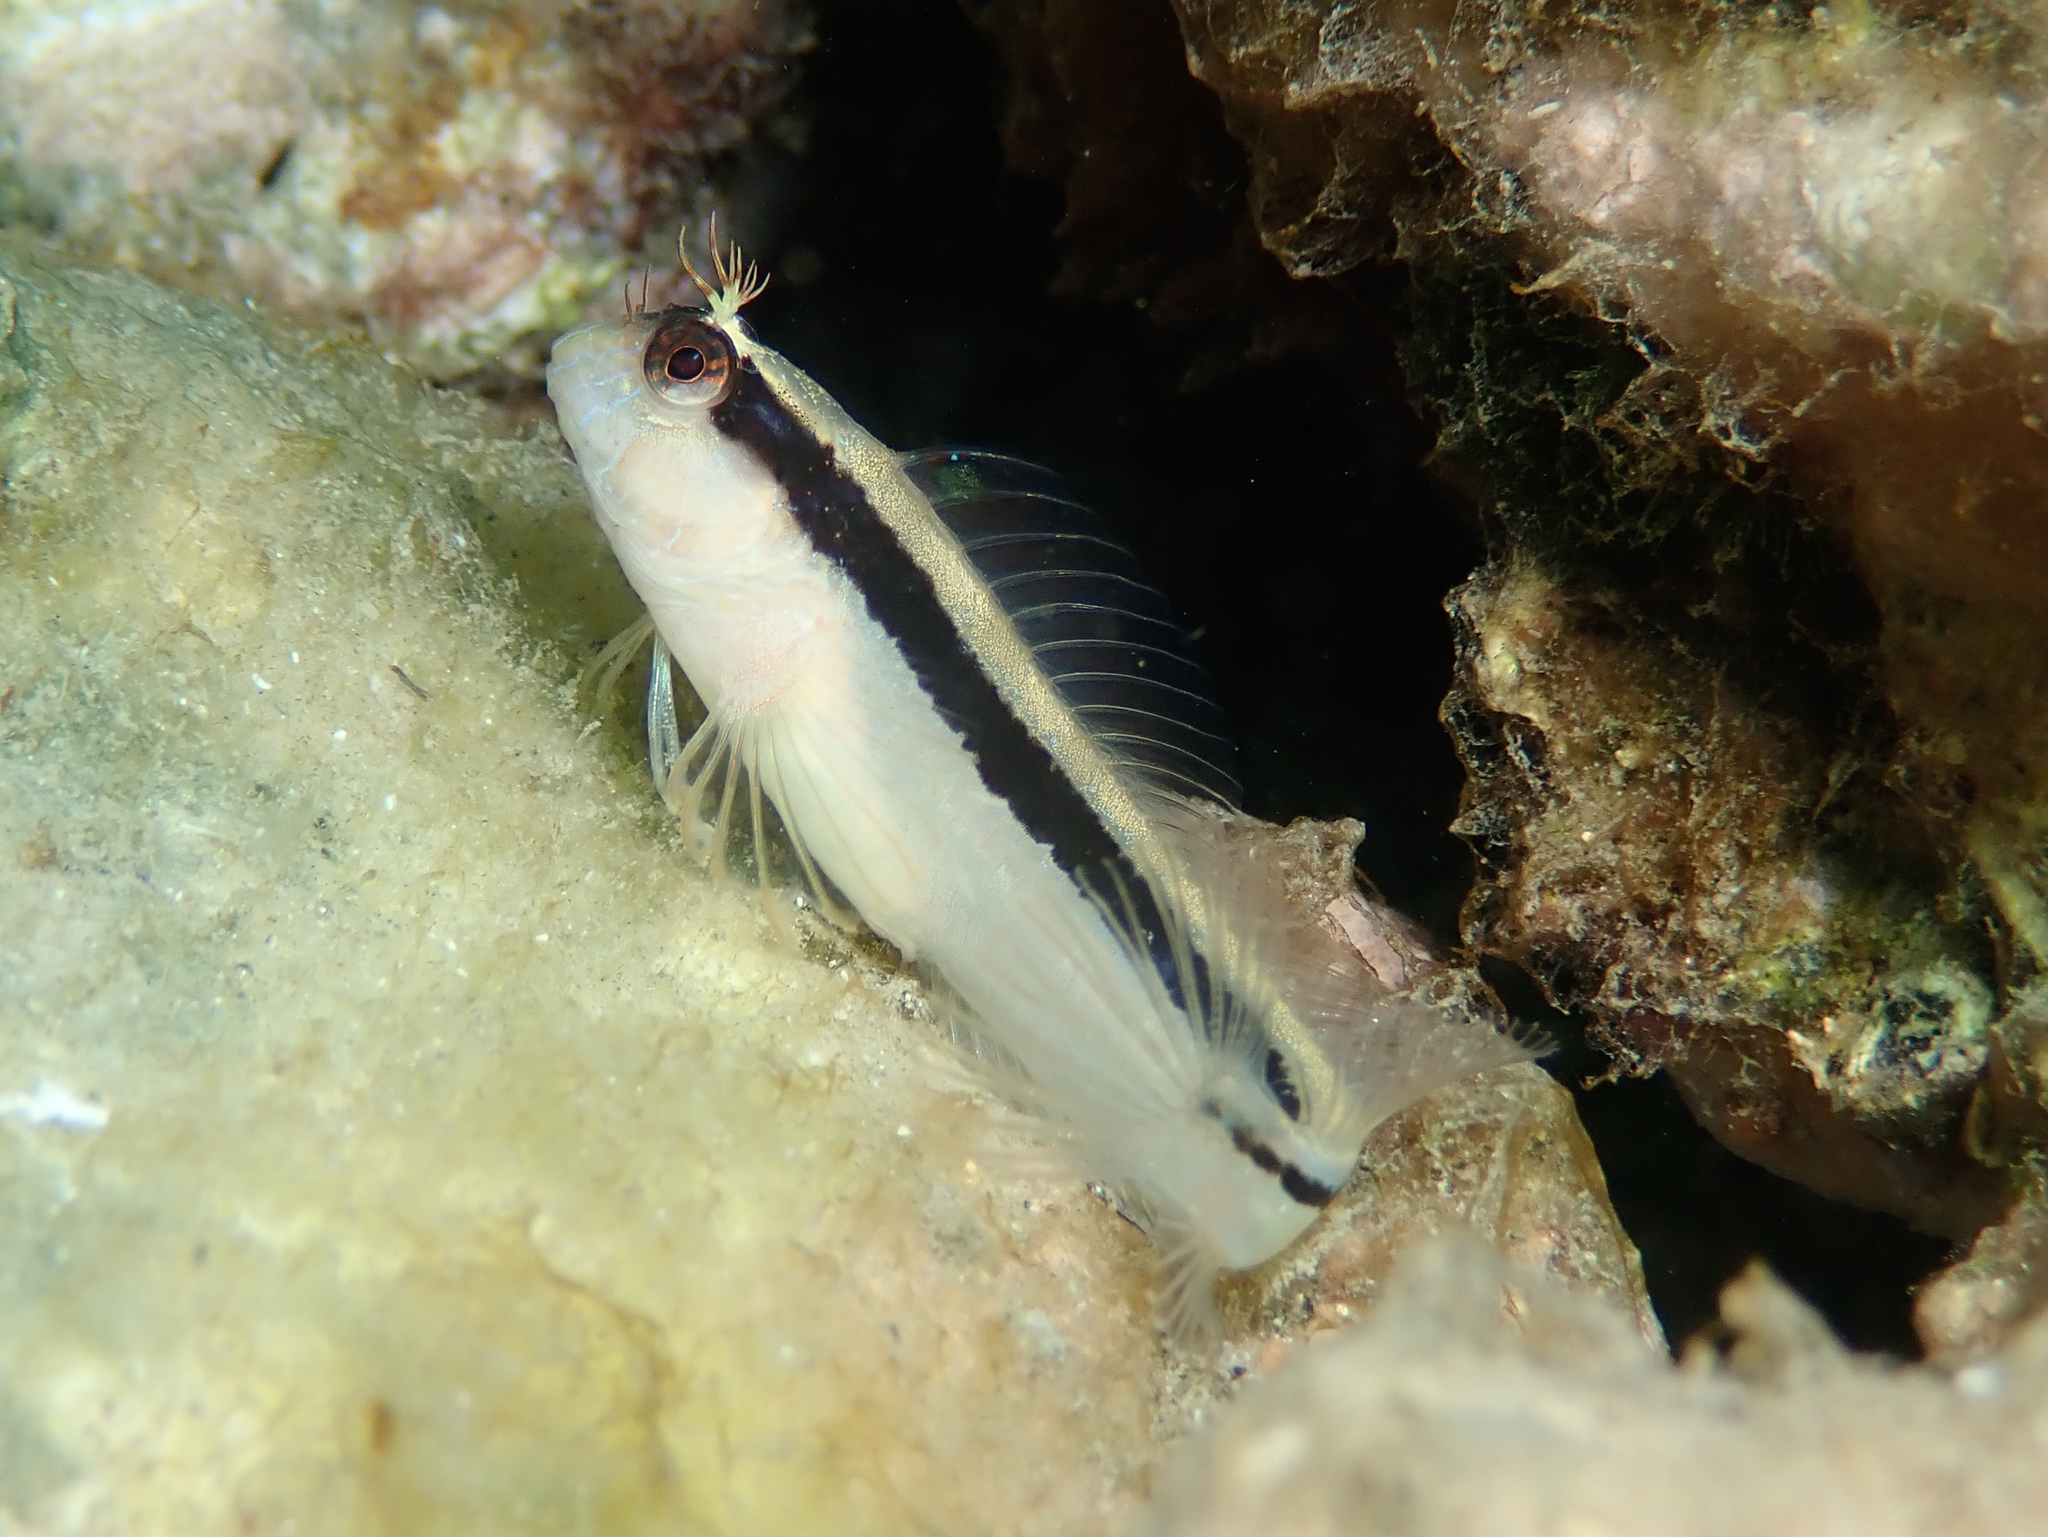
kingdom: Animalia
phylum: Chordata
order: Perciformes
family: Blenniidae
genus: Parablennius
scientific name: Parablennius rouxi
